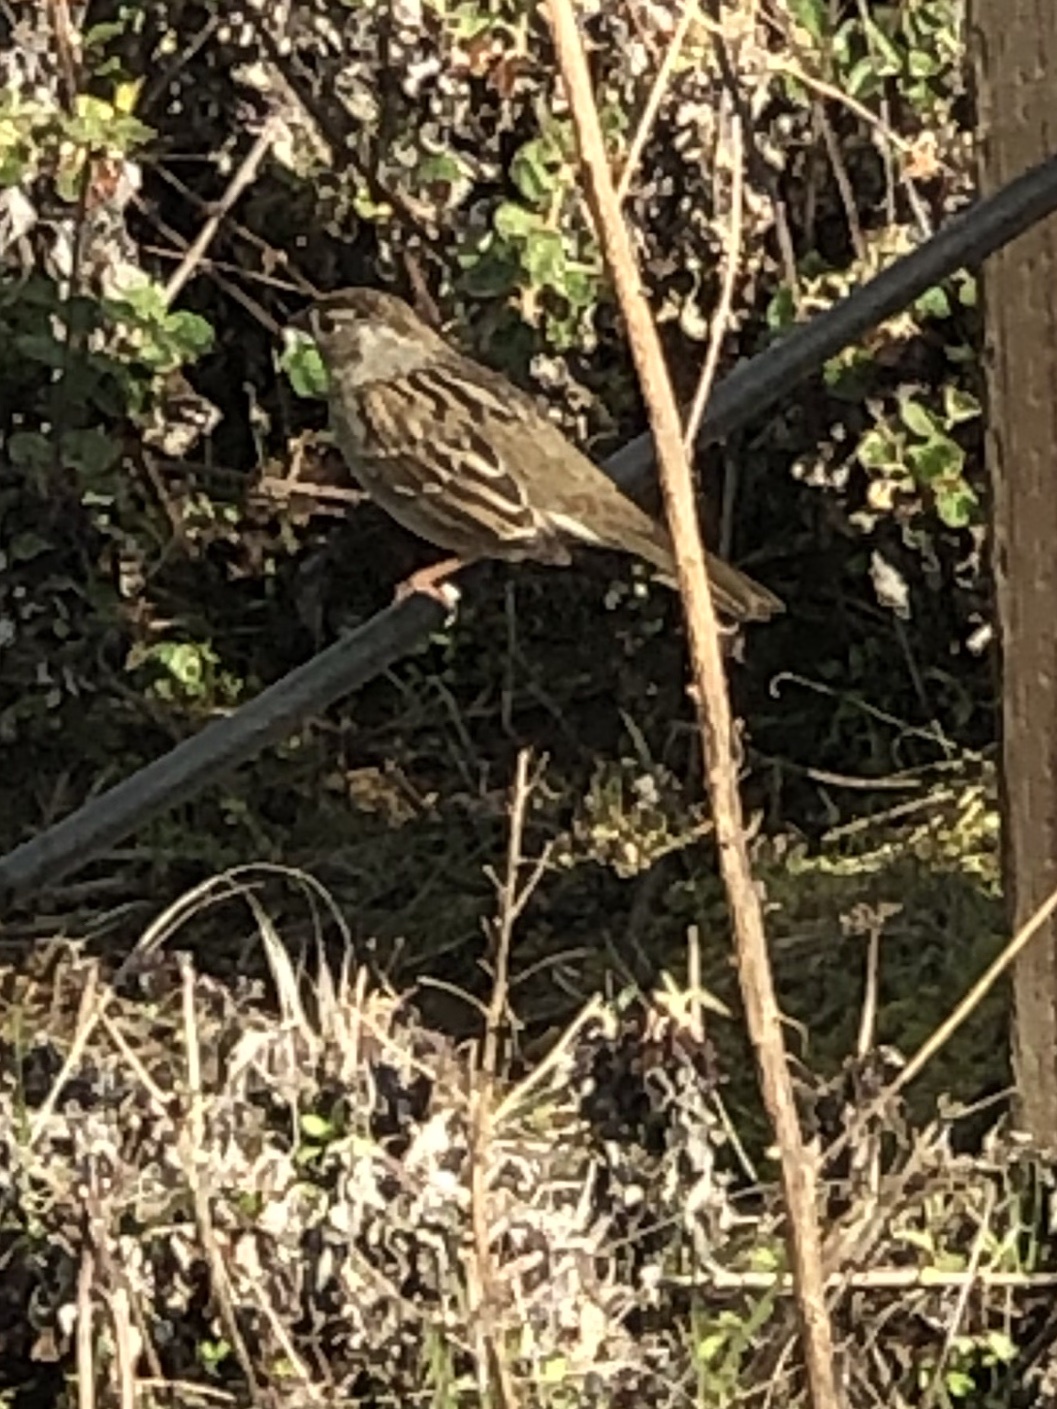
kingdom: Animalia
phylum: Chordata
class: Aves
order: Passeriformes
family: Passerellidae
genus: Zonotrichia
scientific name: Zonotrichia atricapilla
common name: Golden-crowned sparrow
